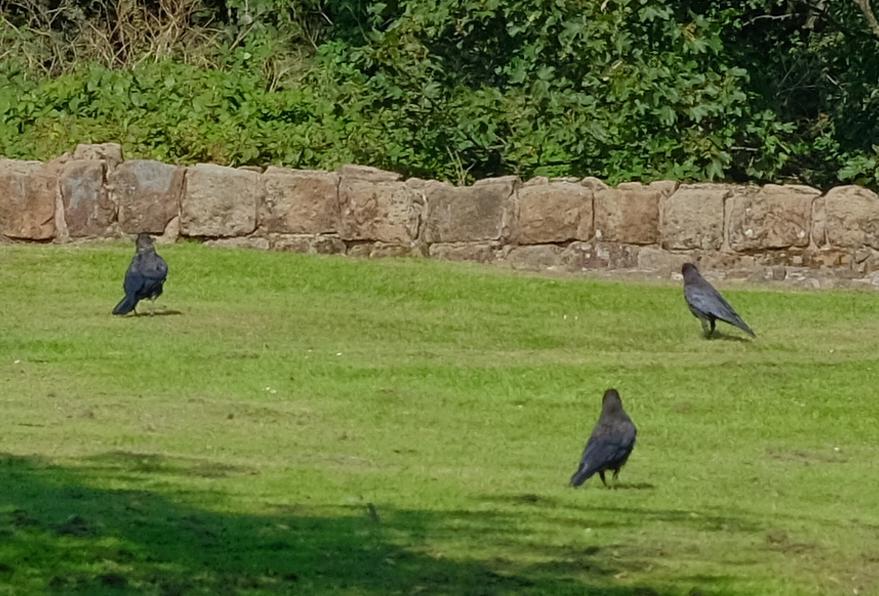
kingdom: Animalia
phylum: Chordata
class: Aves
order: Passeriformes
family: Corvidae
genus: Corvus
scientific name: Corvus corone
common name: Carrion crow
